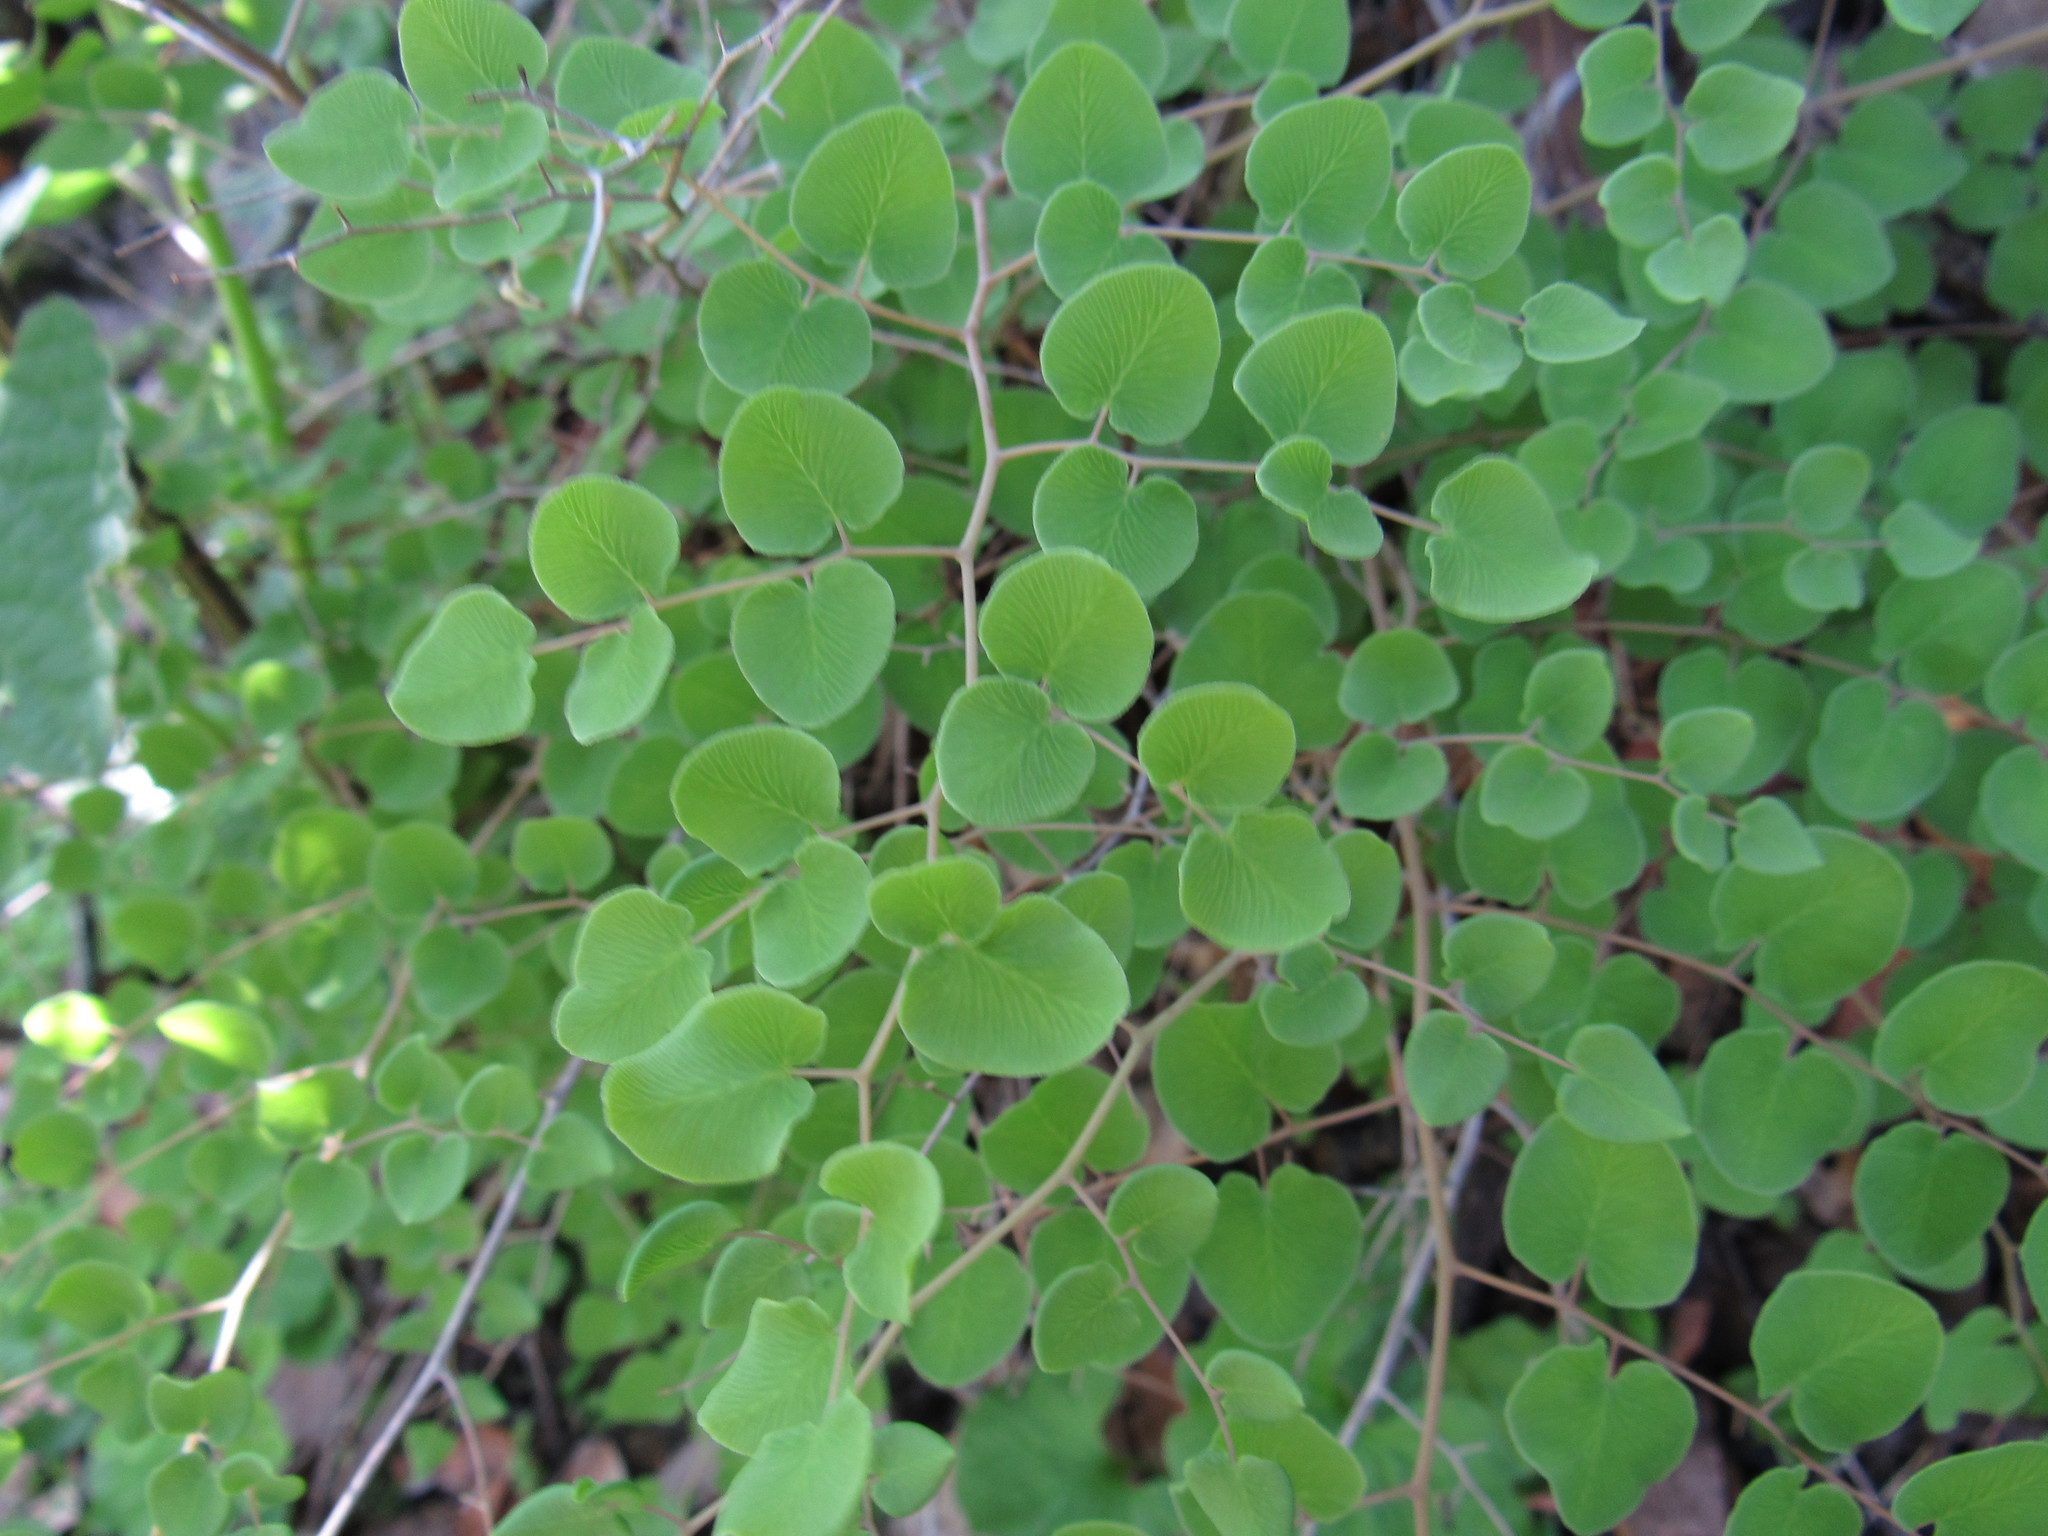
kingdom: Plantae
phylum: Tracheophyta
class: Polypodiopsida
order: Polypodiales
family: Pteridaceae
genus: Pellaea
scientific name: Pellaea cordifolia
